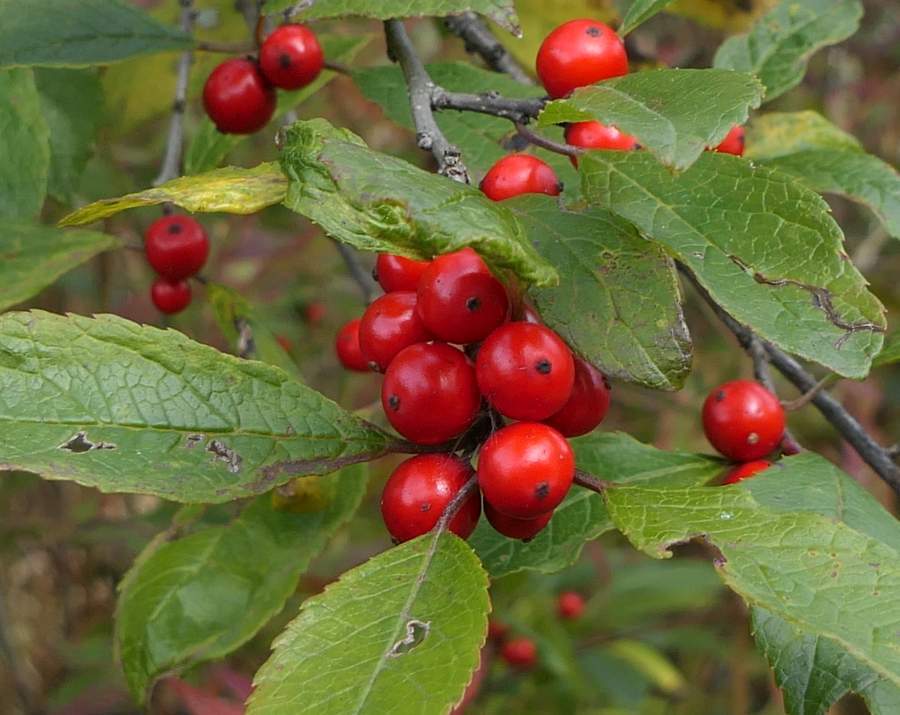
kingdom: Plantae
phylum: Tracheophyta
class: Magnoliopsida
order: Aquifoliales
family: Aquifoliaceae
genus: Ilex
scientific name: Ilex verticillata
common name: Virginia winterberry
